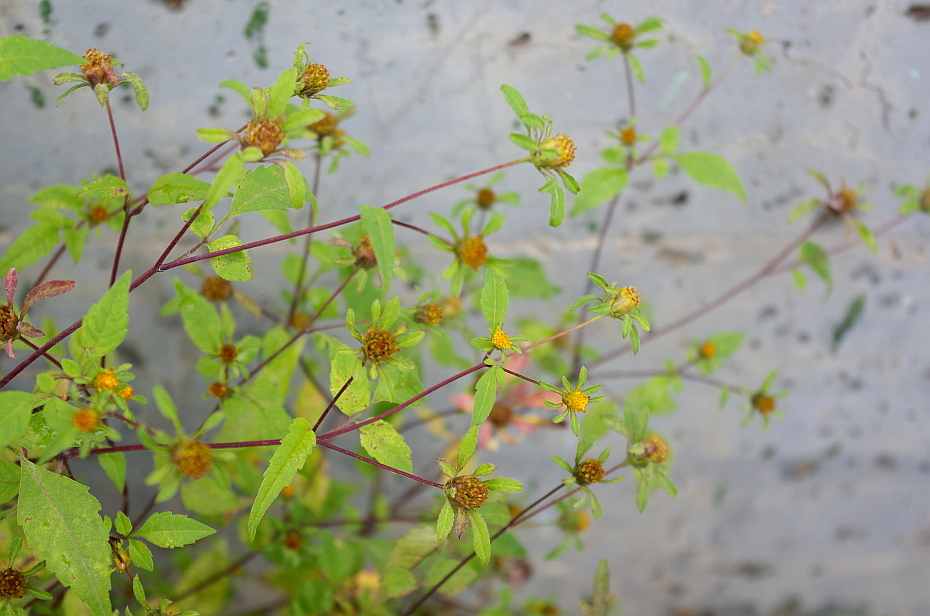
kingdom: Plantae
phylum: Tracheophyta
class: Magnoliopsida
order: Asterales
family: Asteraceae
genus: Bidens
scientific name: Bidens frondosa
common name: Beggarticks
